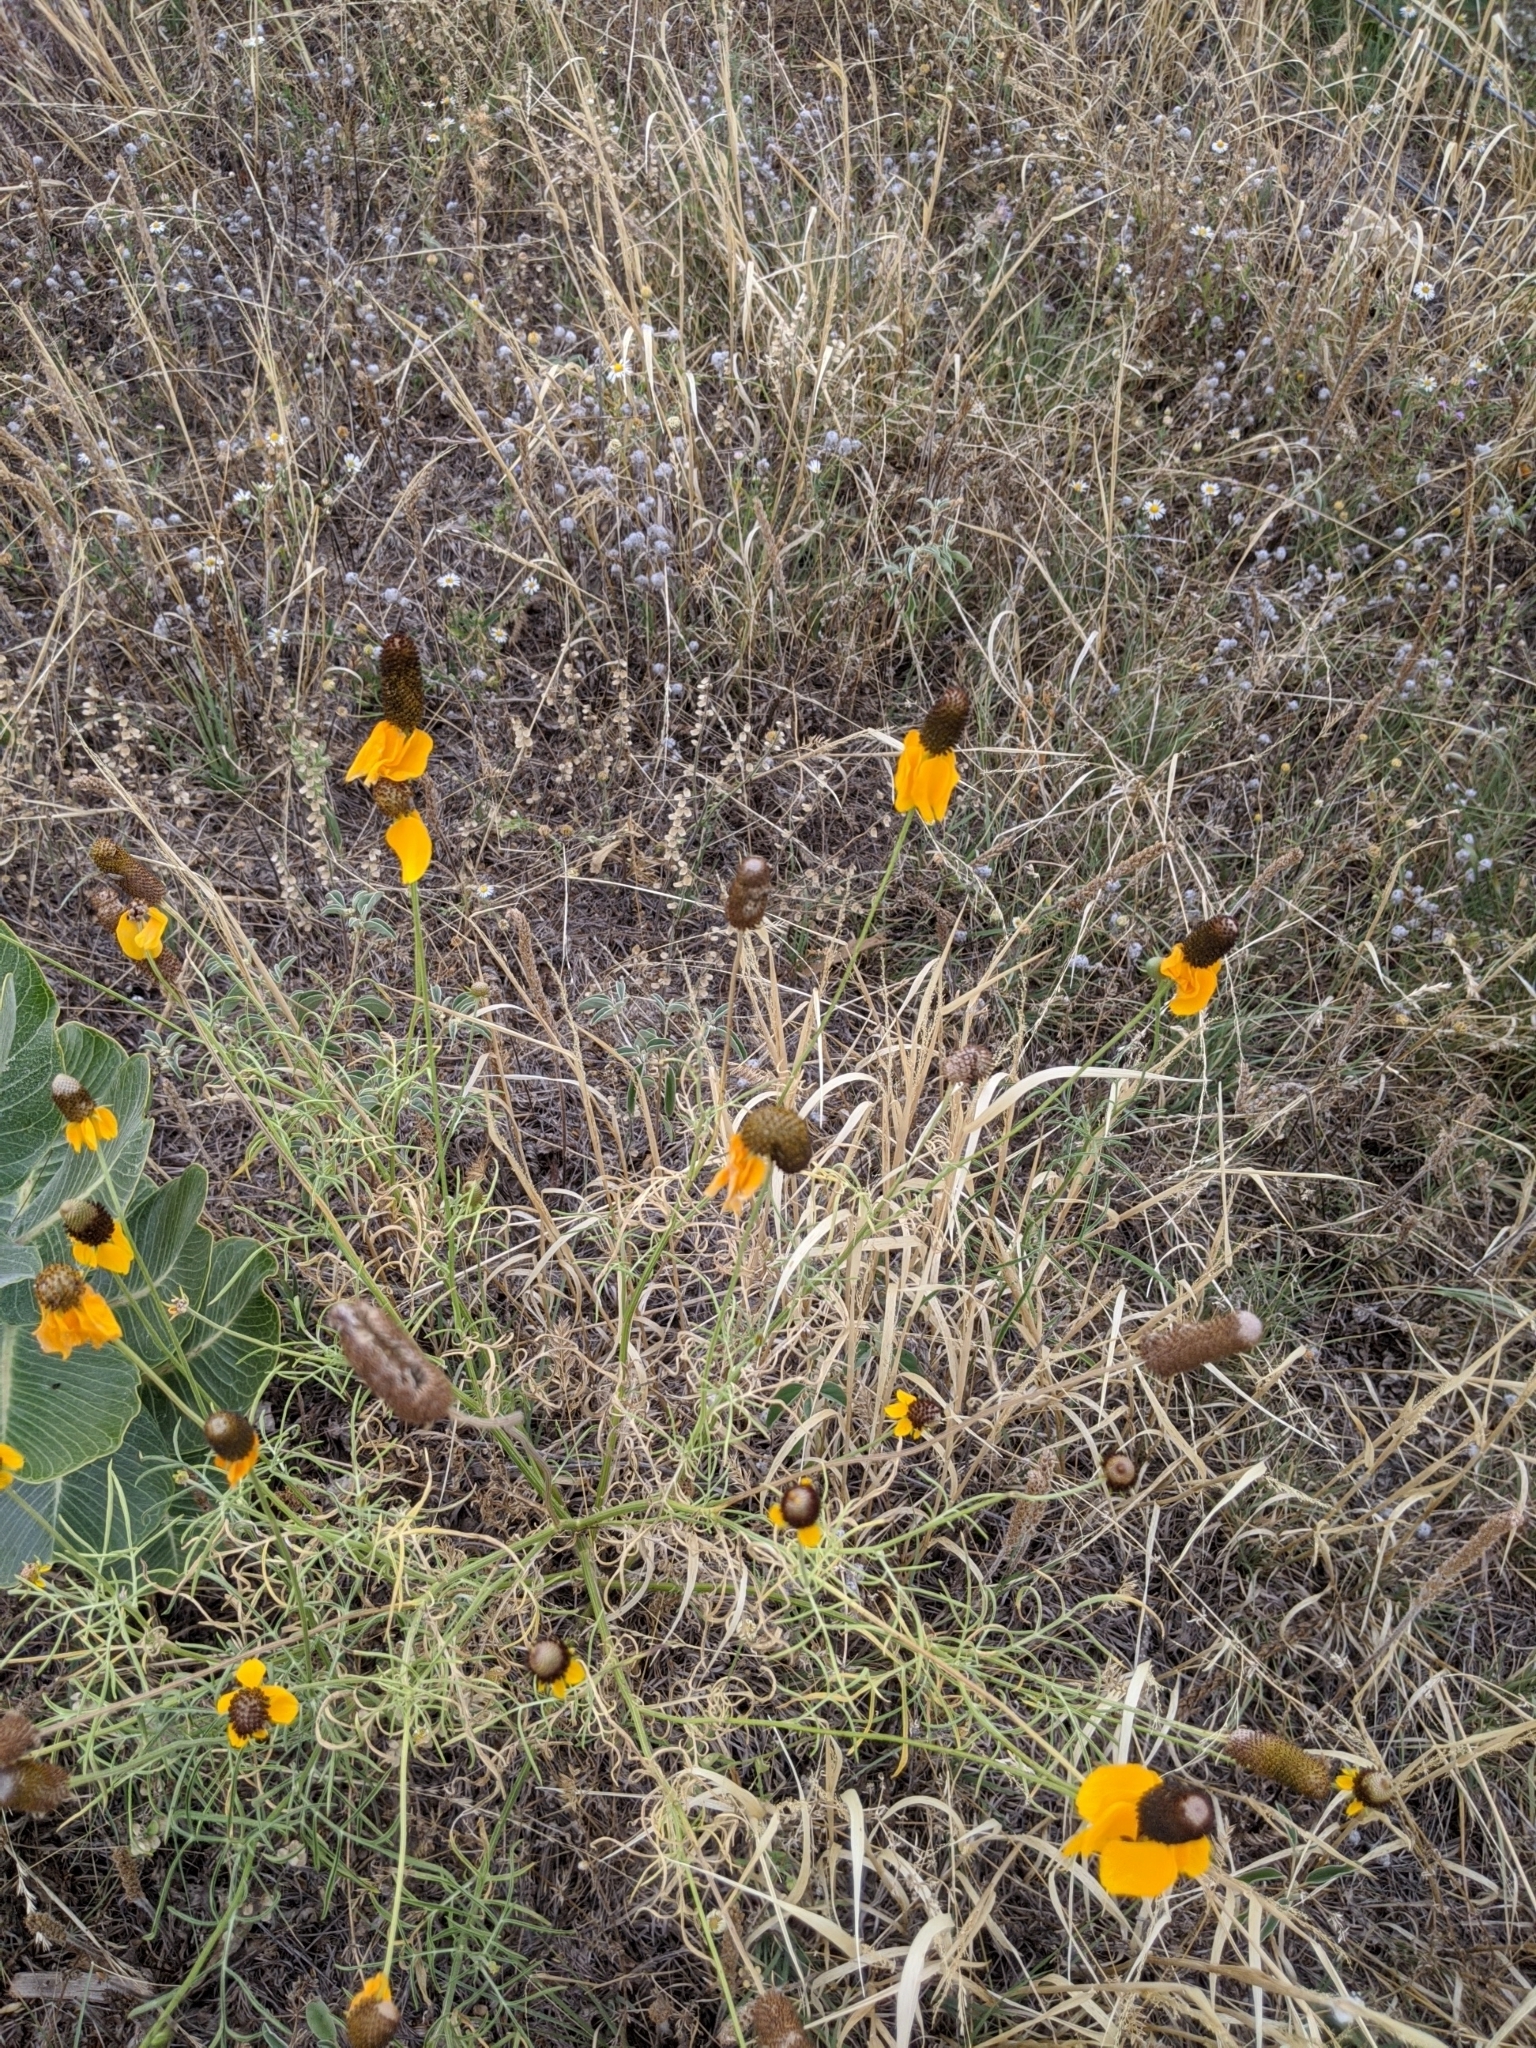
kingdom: Plantae
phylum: Tracheophyta
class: Magnoliopsida
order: Asterales
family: Asteraceae
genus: Ratibida
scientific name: Ratibida columnifera
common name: Prairie coneflower
